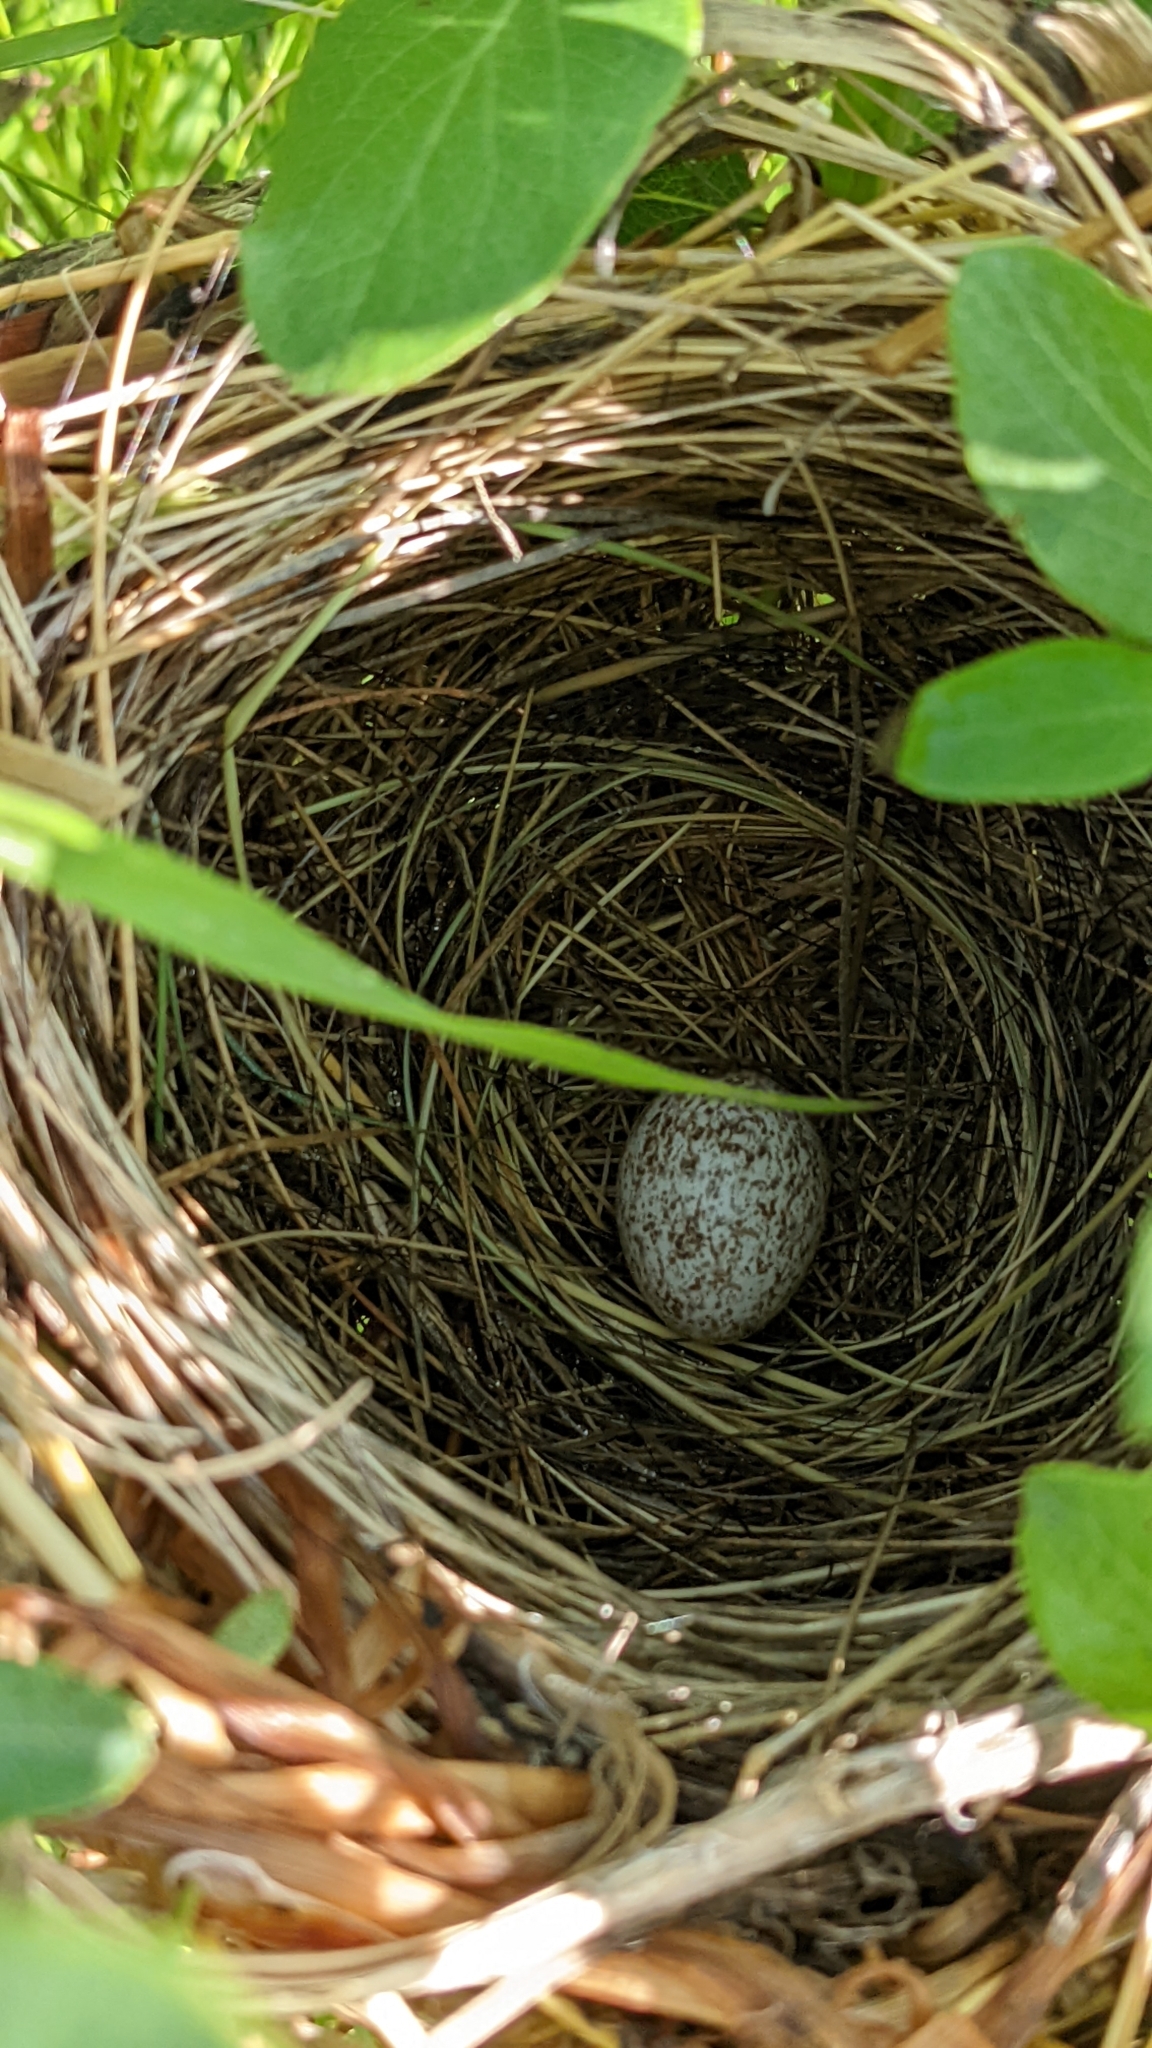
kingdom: Animalia
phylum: Chordata
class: Aves
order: Passeriformes
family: Icteridae
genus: Molothrus
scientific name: Molothrus ater
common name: Brown-headed cowbird
